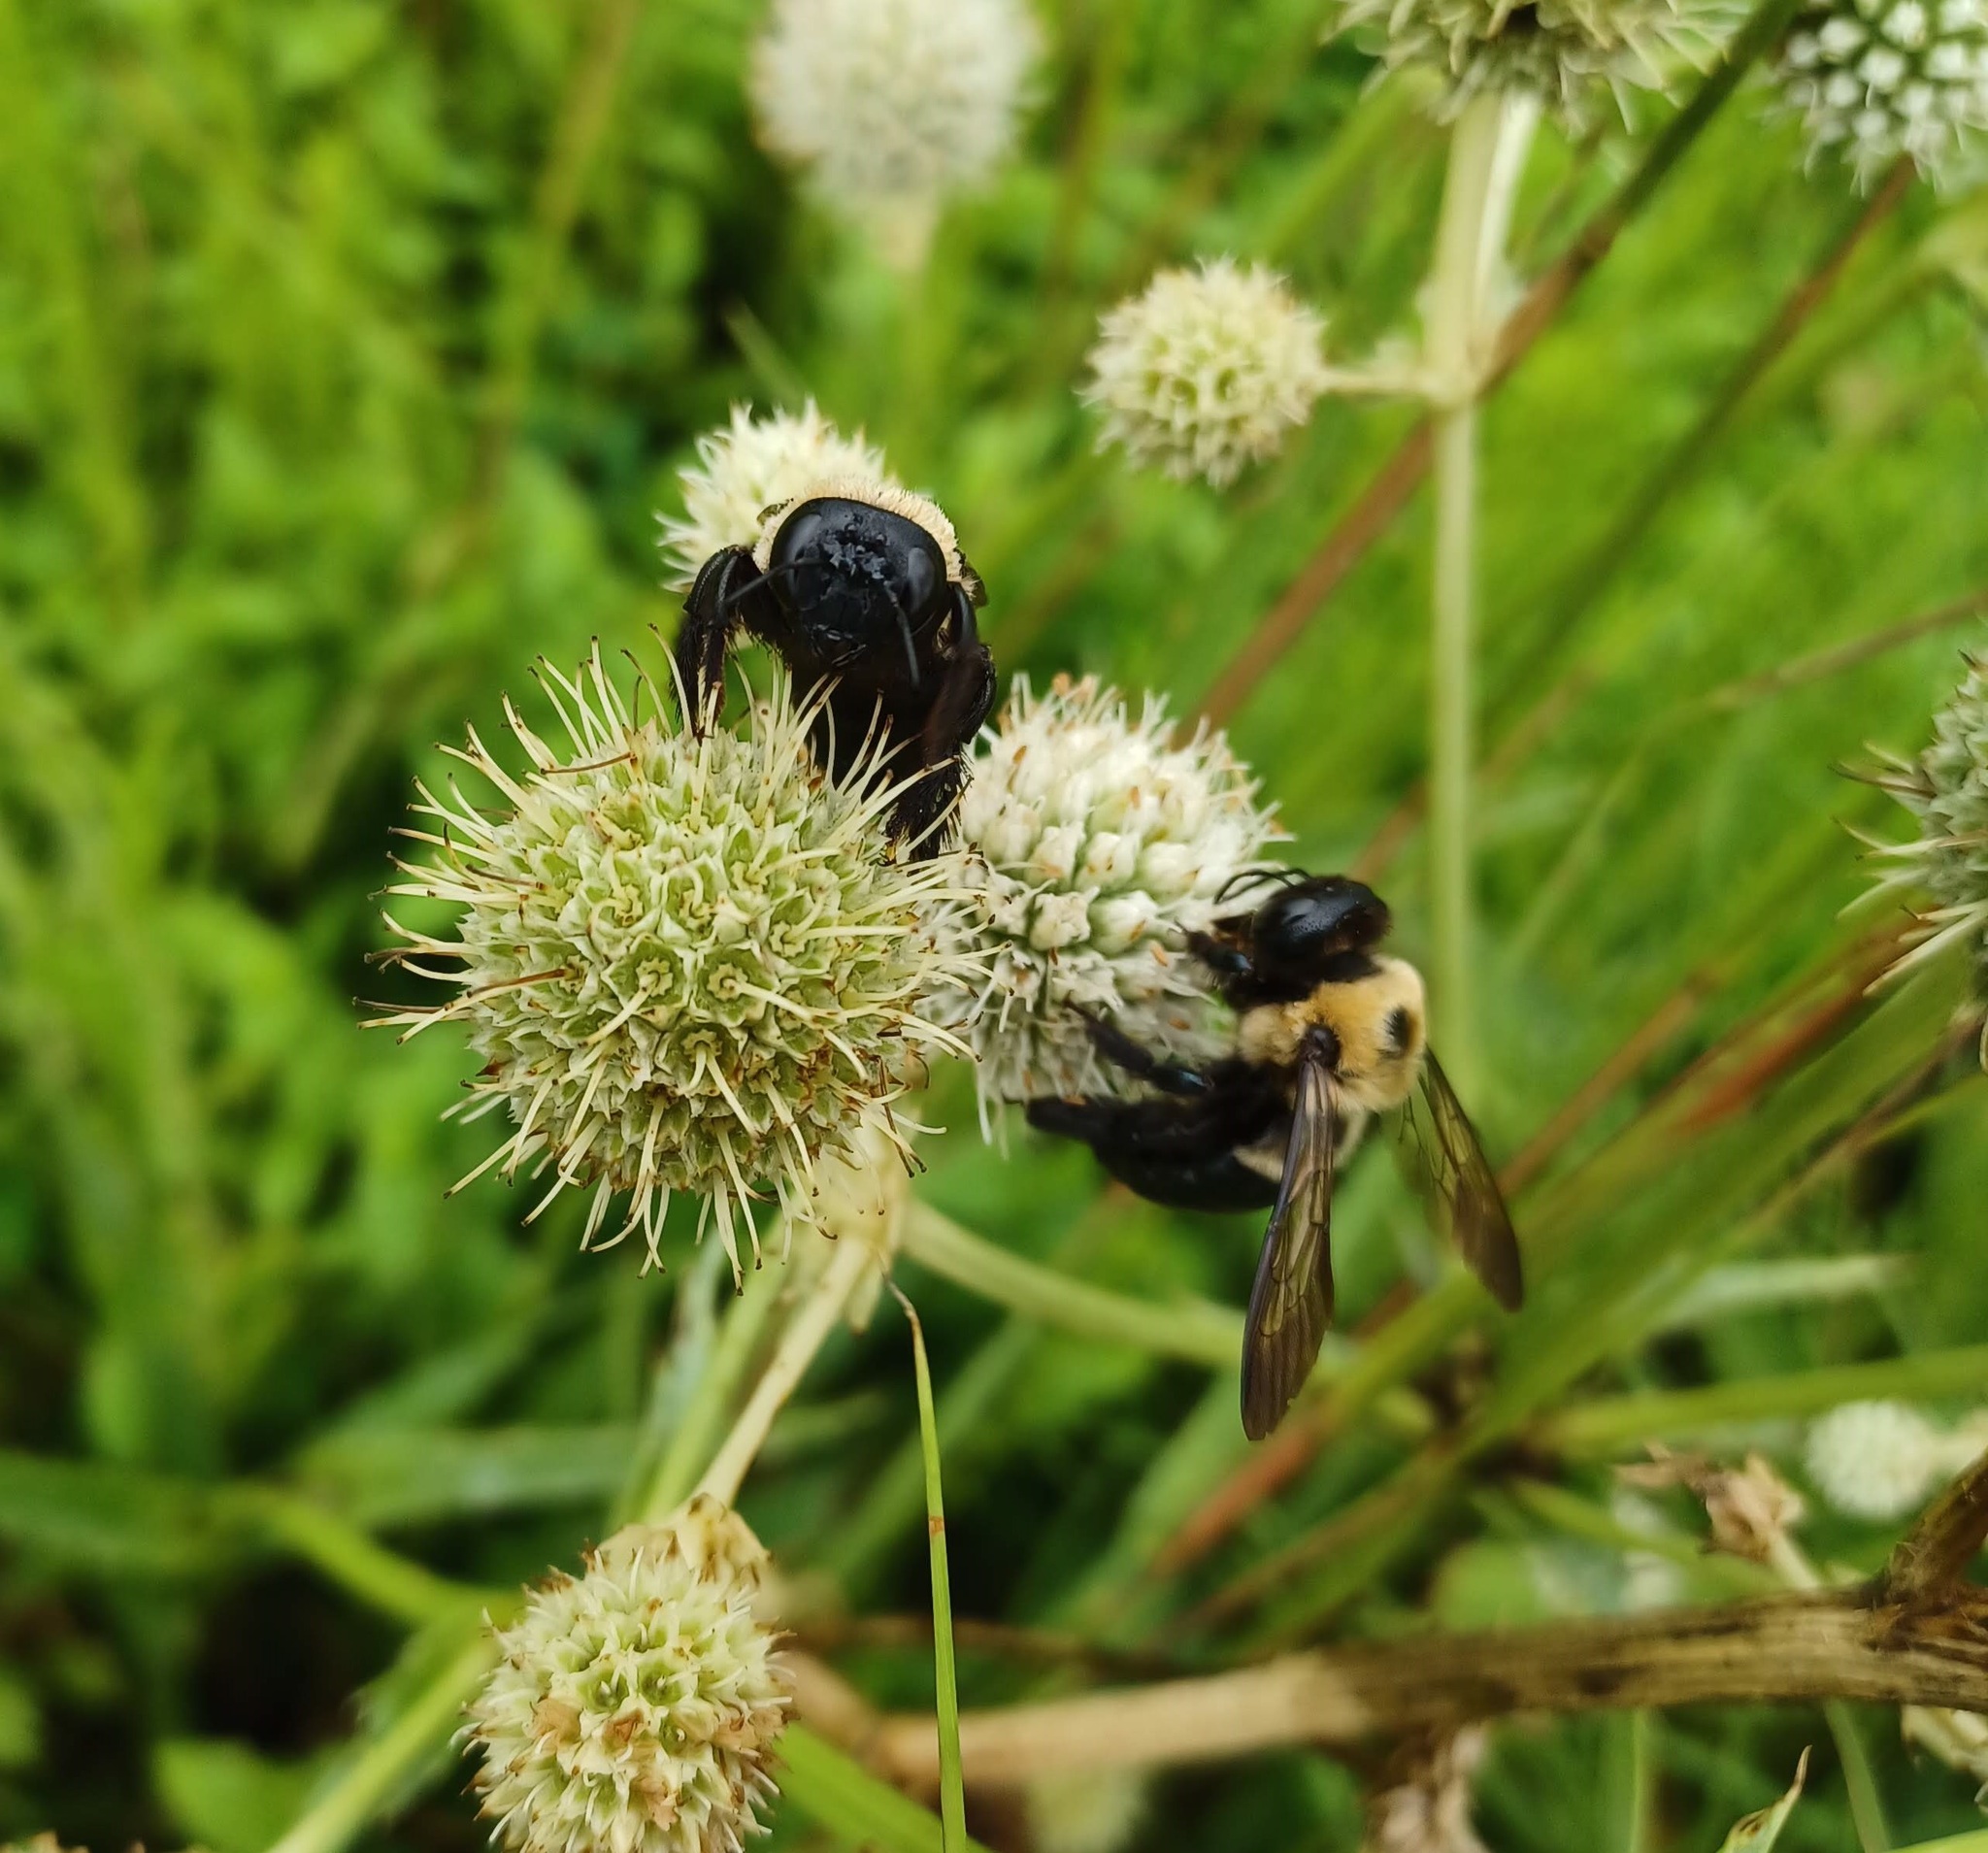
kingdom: Animalia
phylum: Arthropoda
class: Insecta
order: Hymenoptera
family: Apidae
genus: Xylocopa
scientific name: Xylocopa virginica
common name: Carpenter bee
